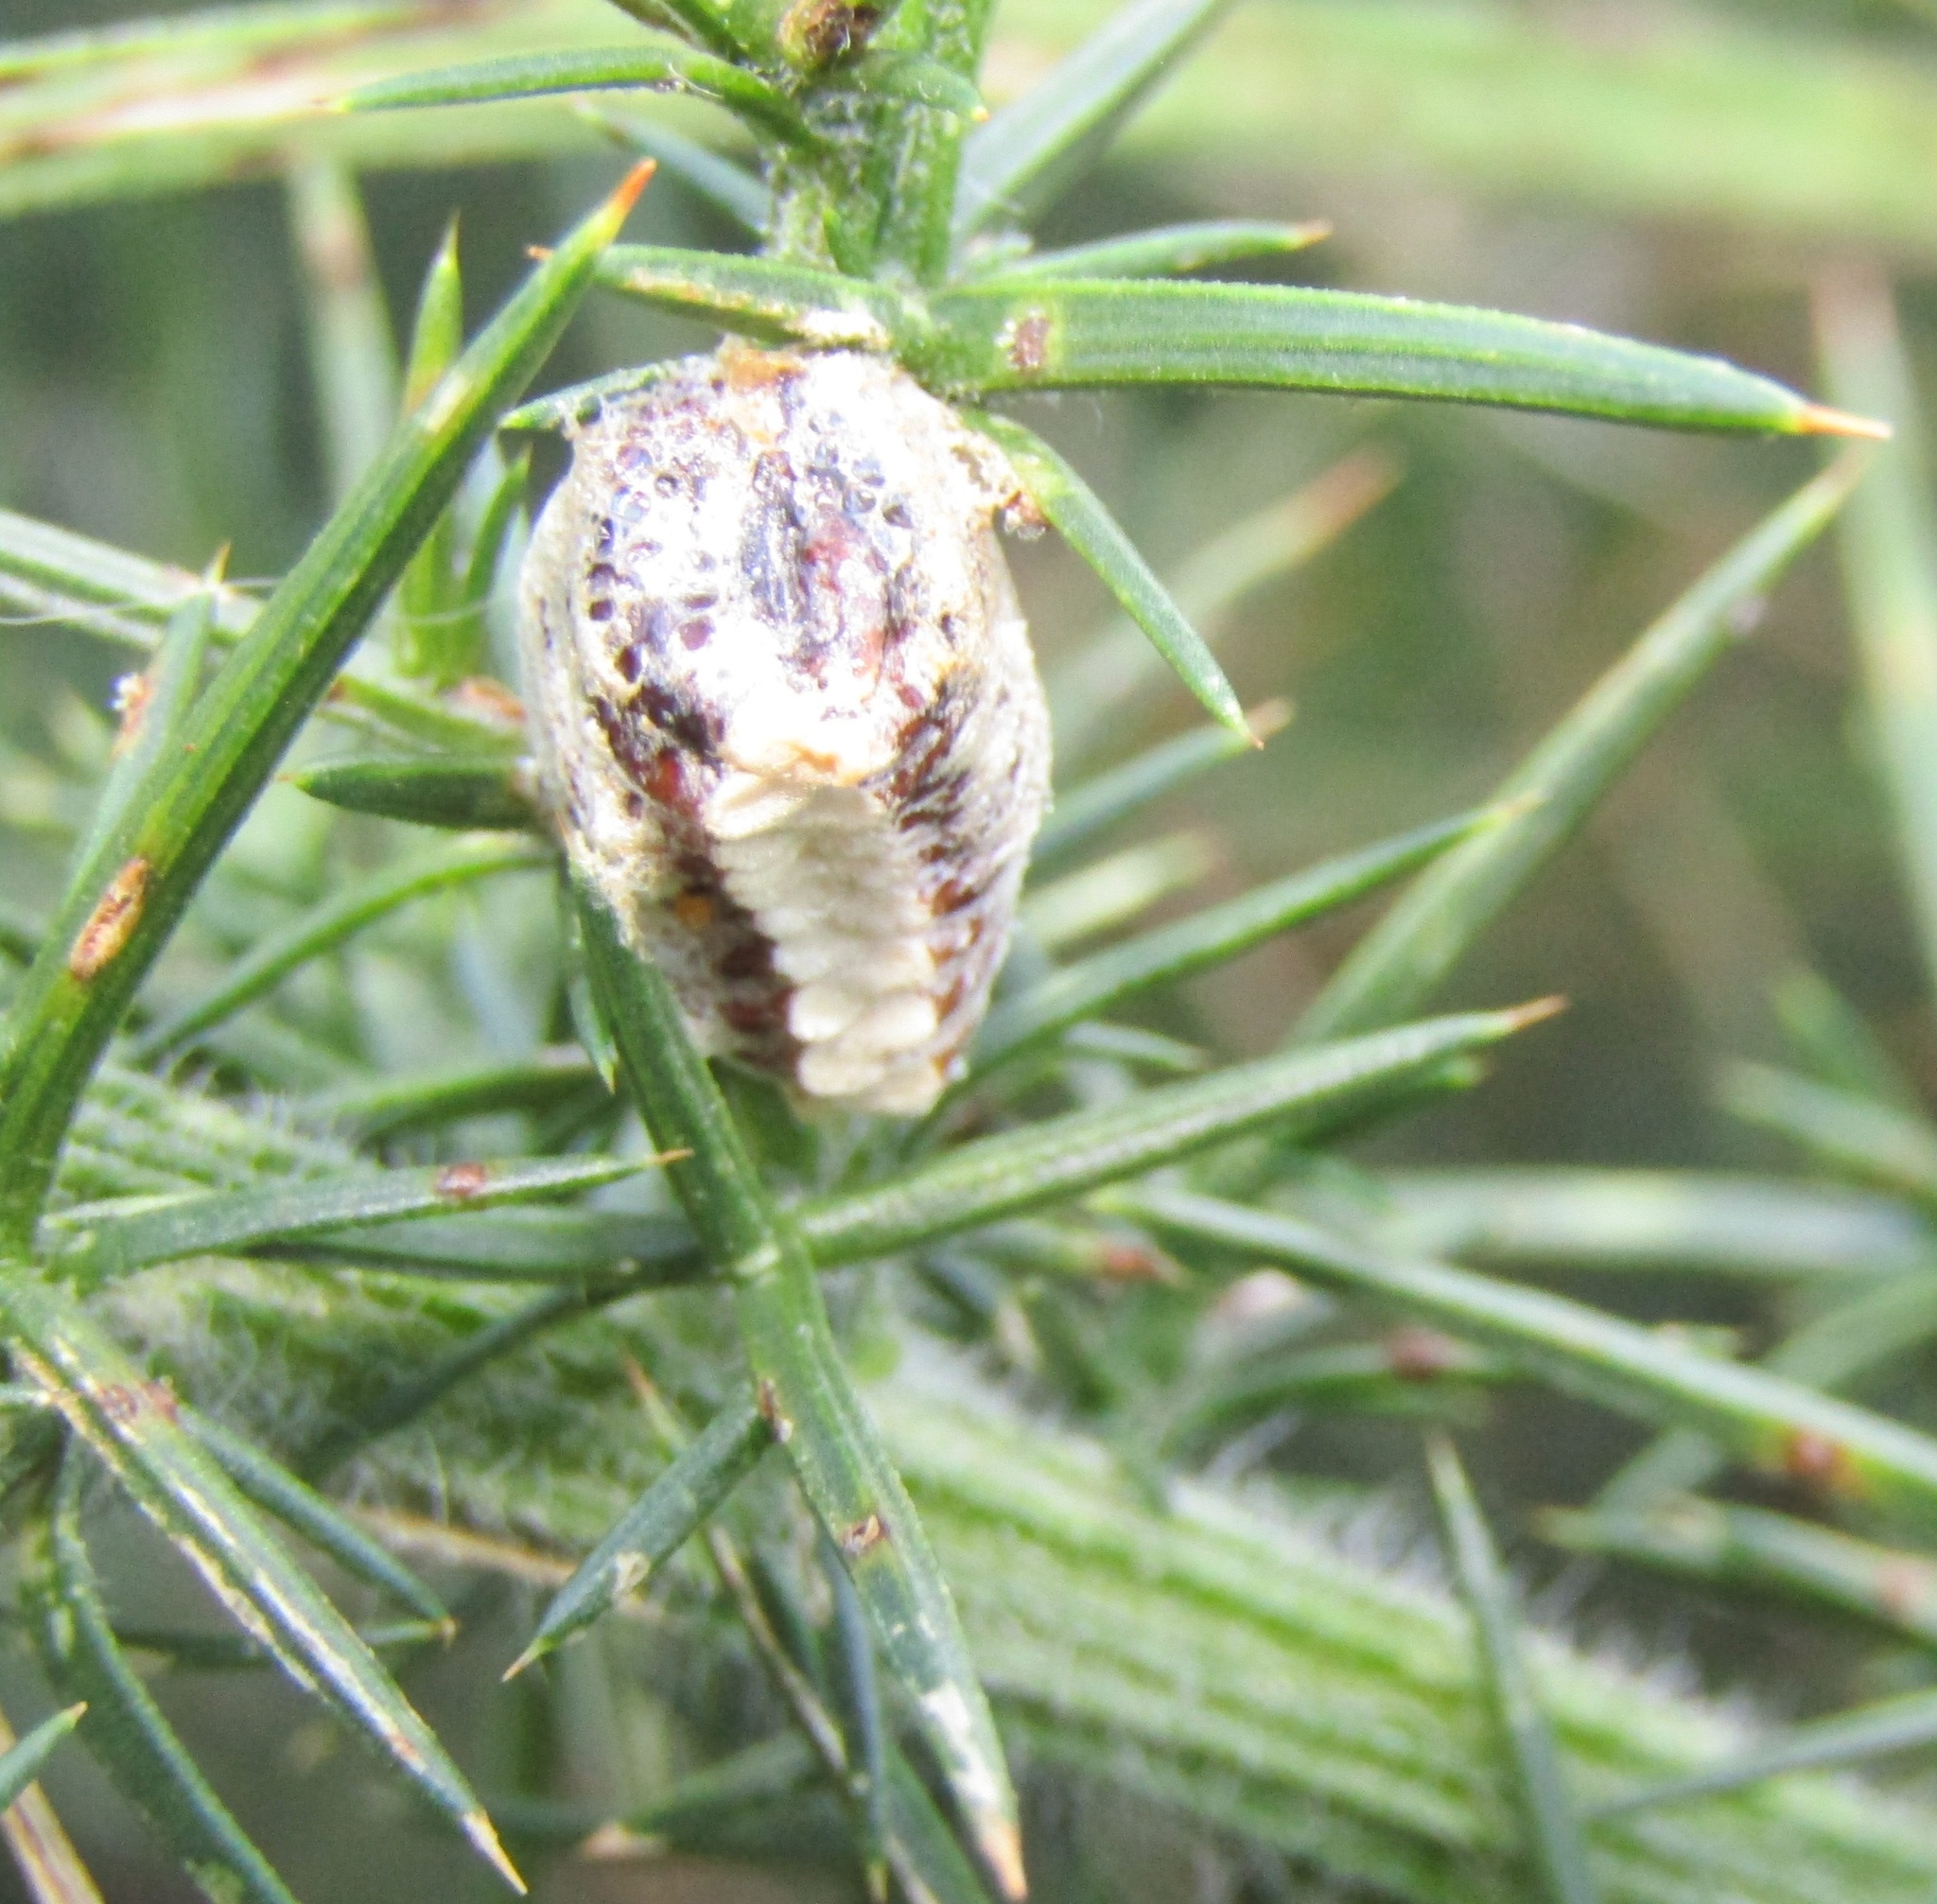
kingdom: Animalia
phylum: Arthropoda
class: Insecta
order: Mantodea
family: Mantidae
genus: Orthodera
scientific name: Orthodera novaezealandiae
